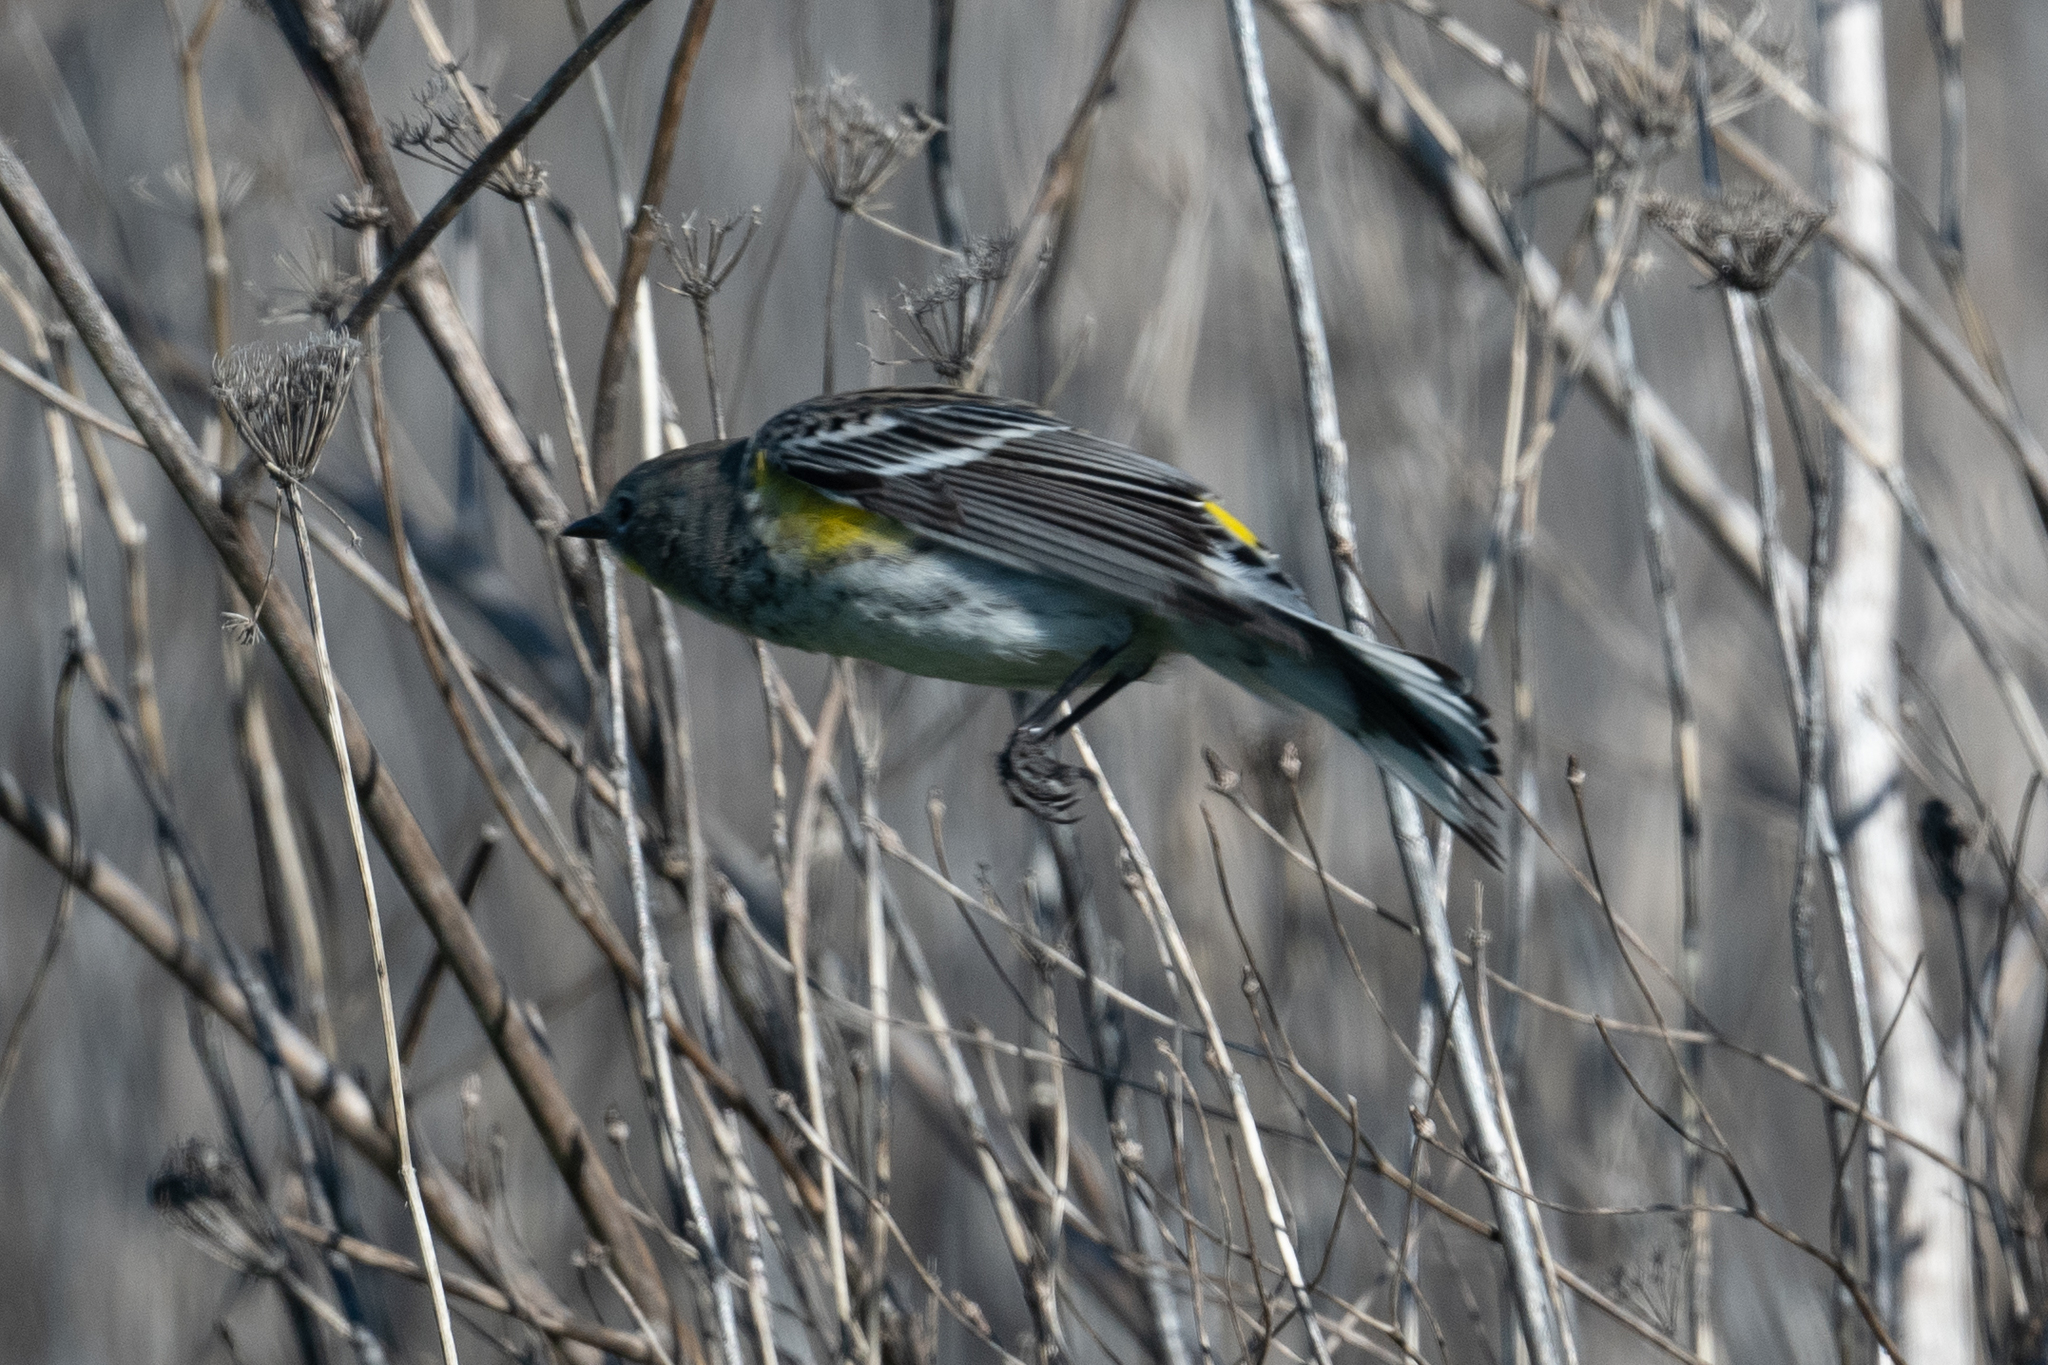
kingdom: Animalia
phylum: Chordata
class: Aves
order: Passeriformes
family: Parulidae
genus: Setophaga
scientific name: Setophaga coronata
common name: Myrtle warbler
